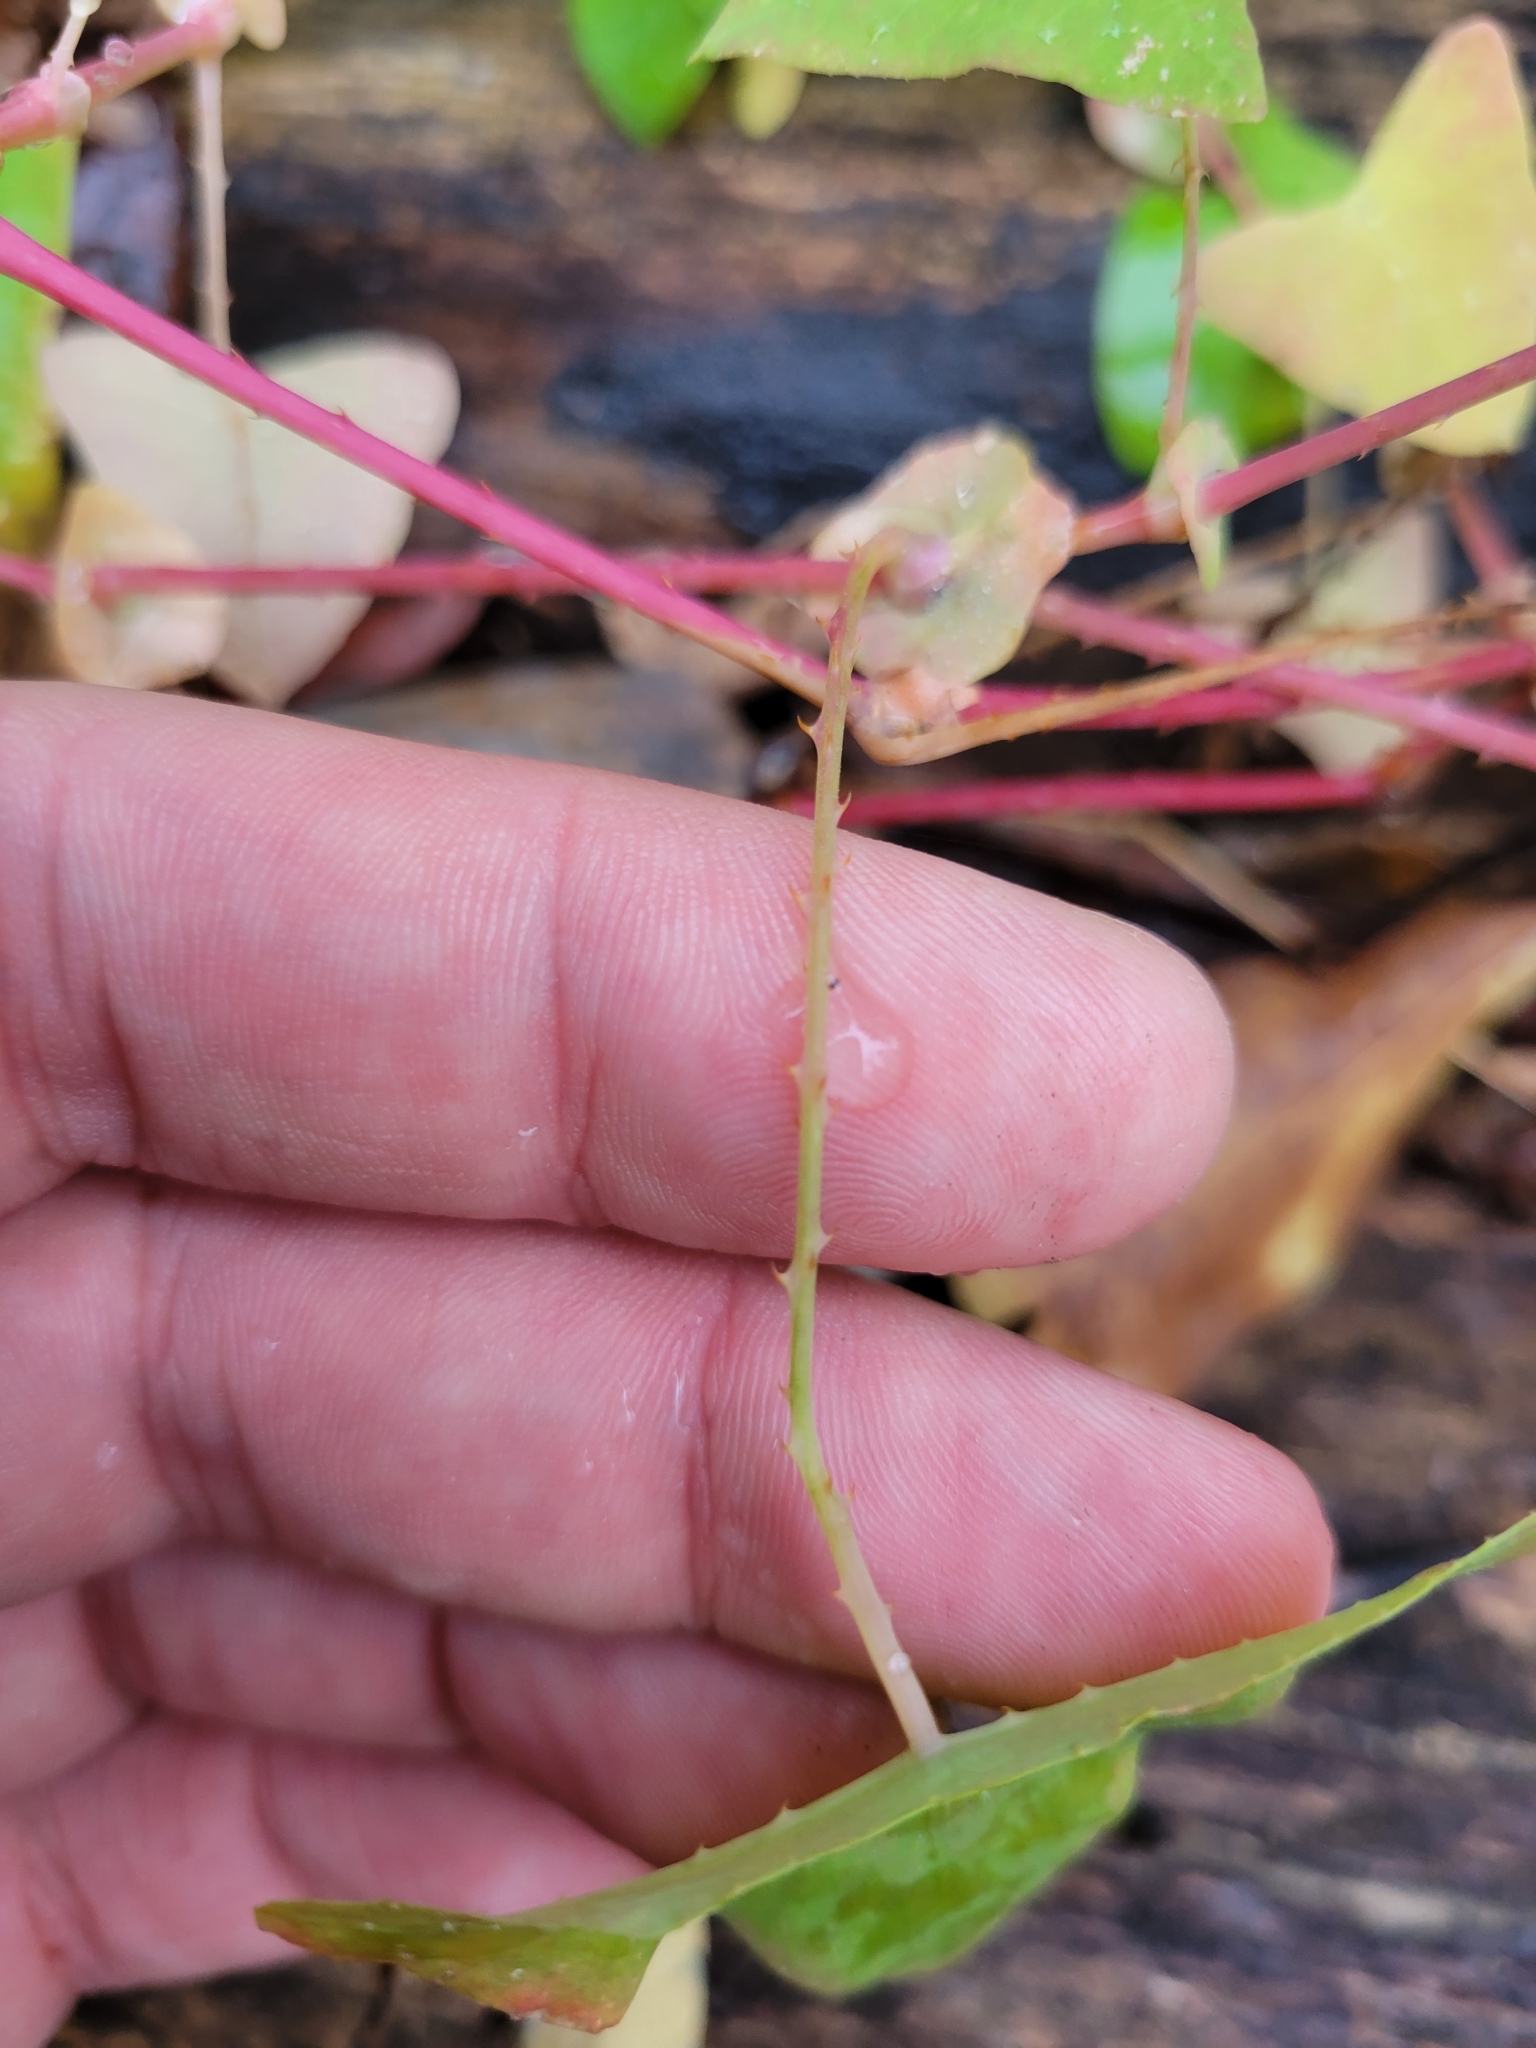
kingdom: Plantae
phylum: Tracheophyta
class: Magnoliopsida
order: Caryophyllales
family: Polygonaceae
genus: Persicaria
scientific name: Persicaria perfoliata
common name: Asiatic tearthumb
